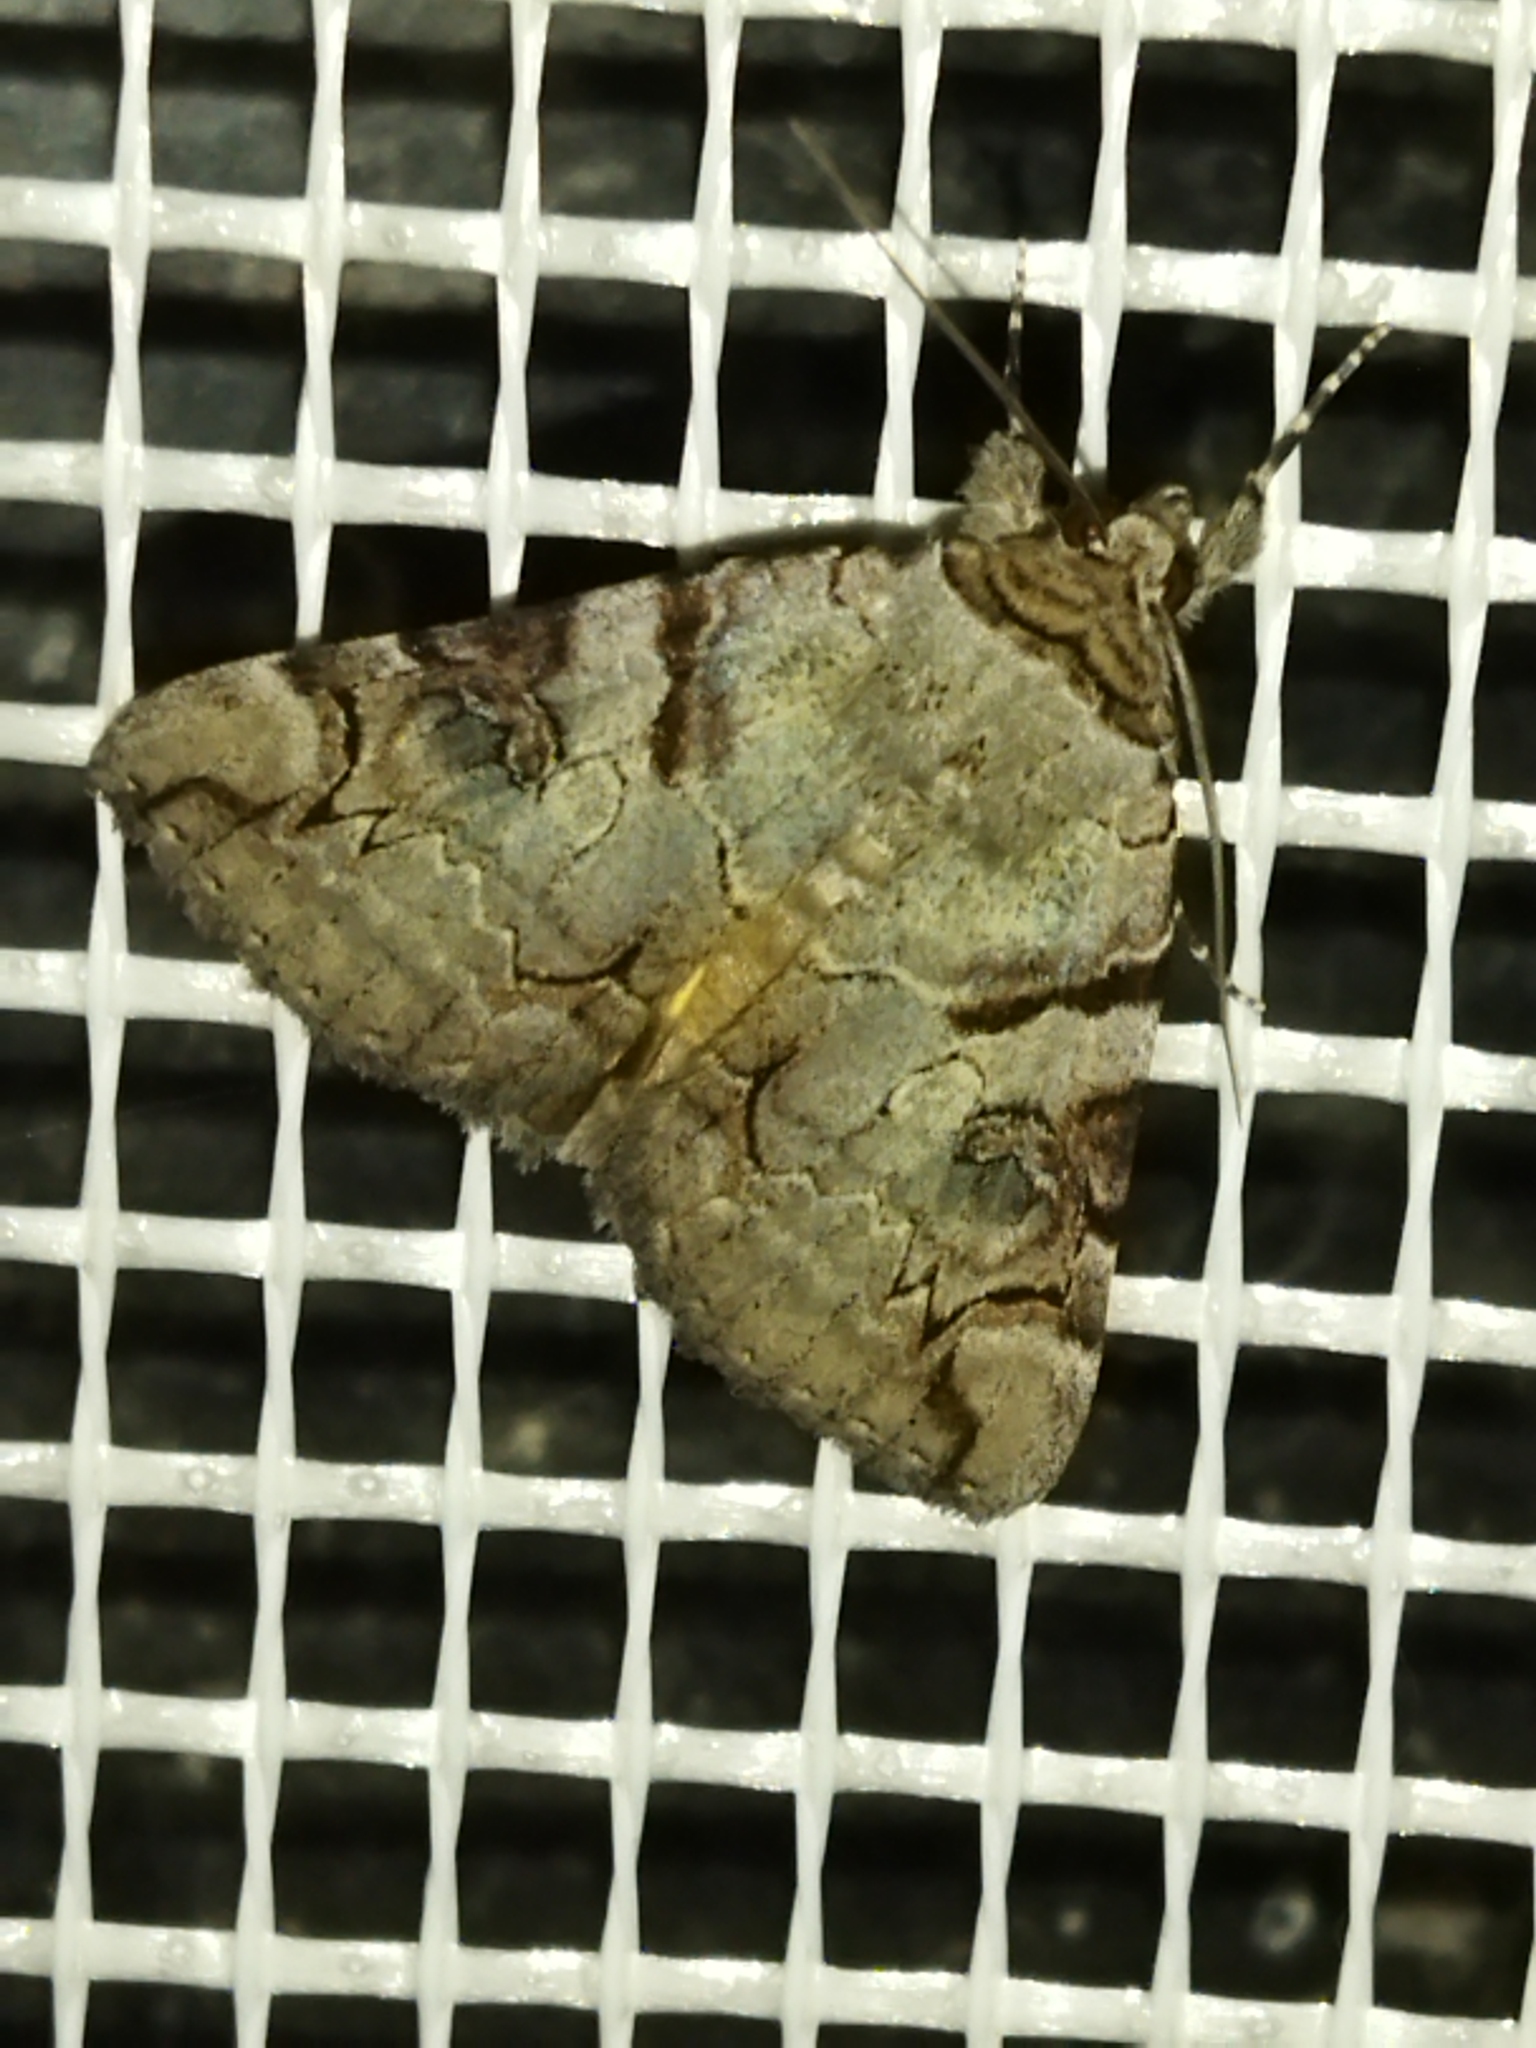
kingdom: Animalia
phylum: Arthropoda
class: Insecta
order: Lepidoptera
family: Erebidae
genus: Catocala
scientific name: Catocala hymenaea
